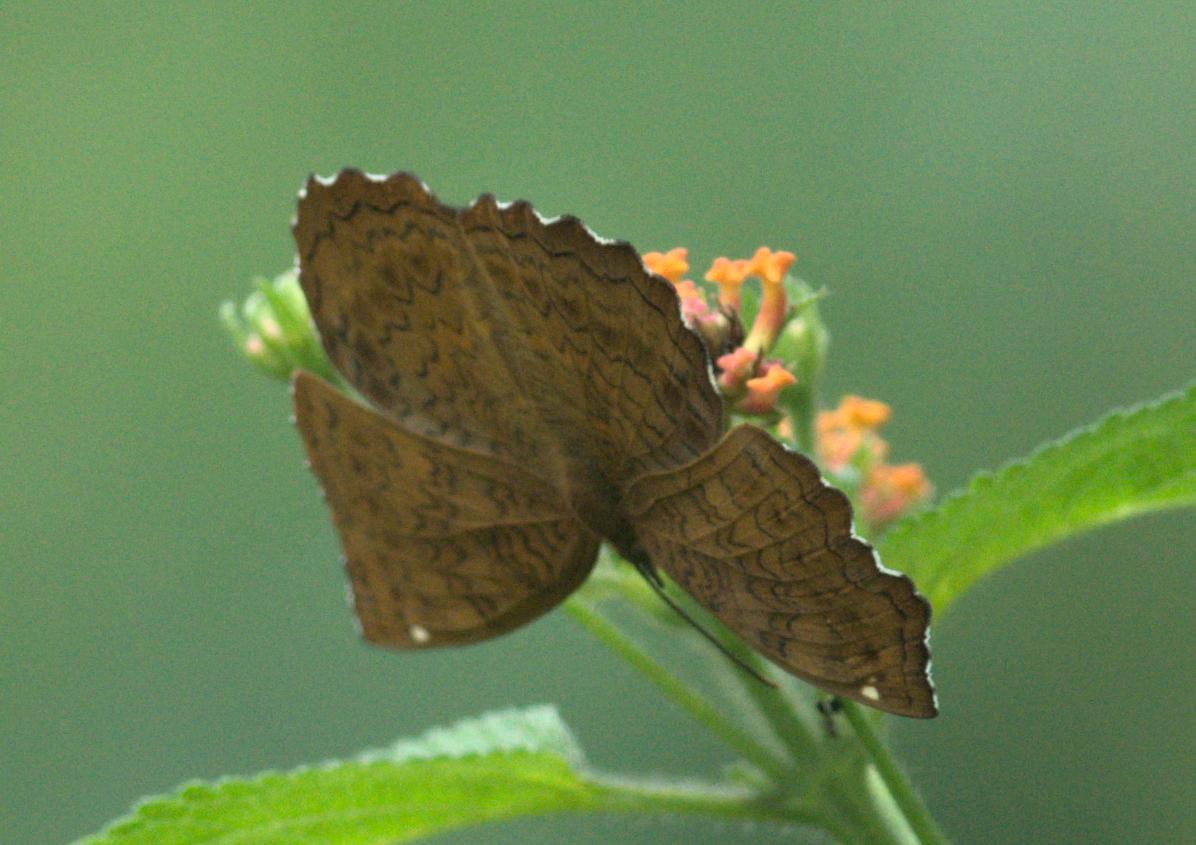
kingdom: Animalia
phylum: Arthropoda
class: Insecta
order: Lepidoptera
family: Nymphalidae
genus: Ariadne
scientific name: Ariadne merione
